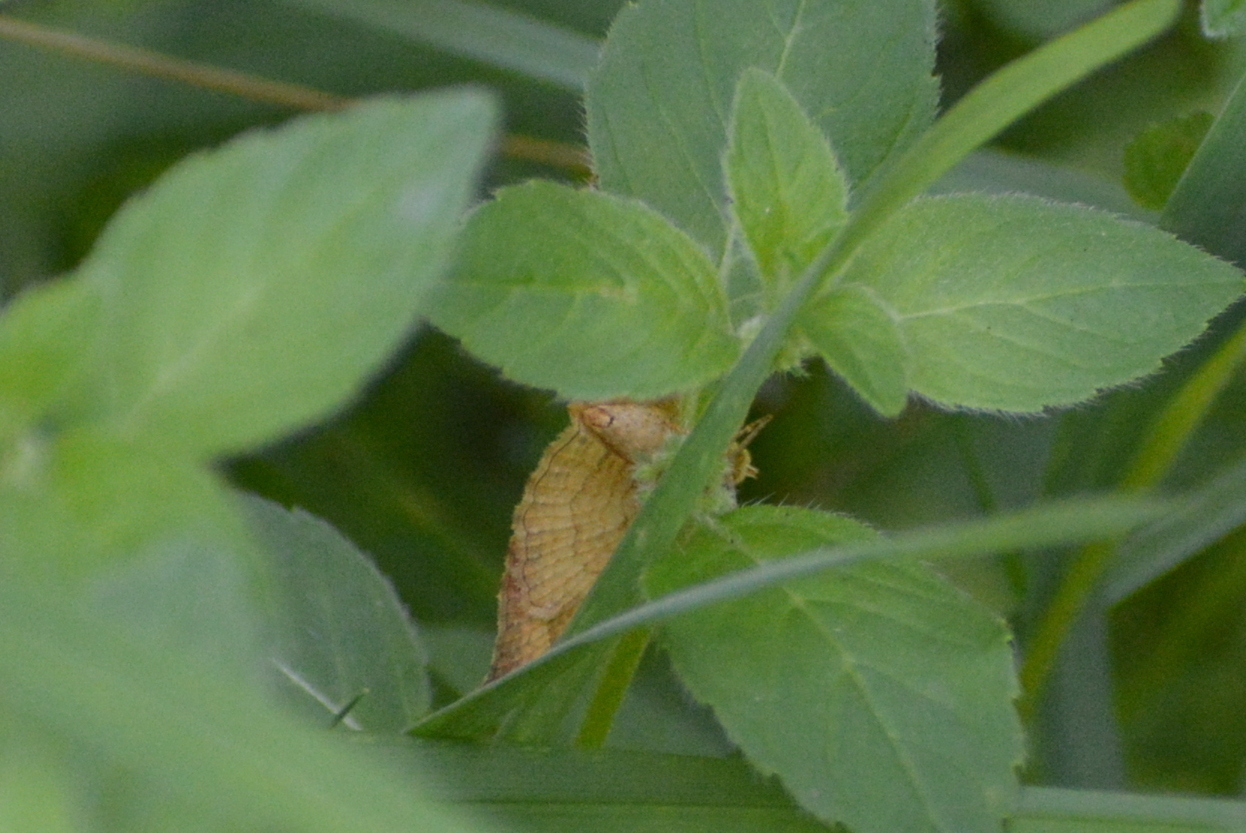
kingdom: Animalia
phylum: Arthropoda
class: Insecta
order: Lepidoptera
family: Geometridae
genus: Camptogramma
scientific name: Camptogramma bilineata
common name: Yellow shell
